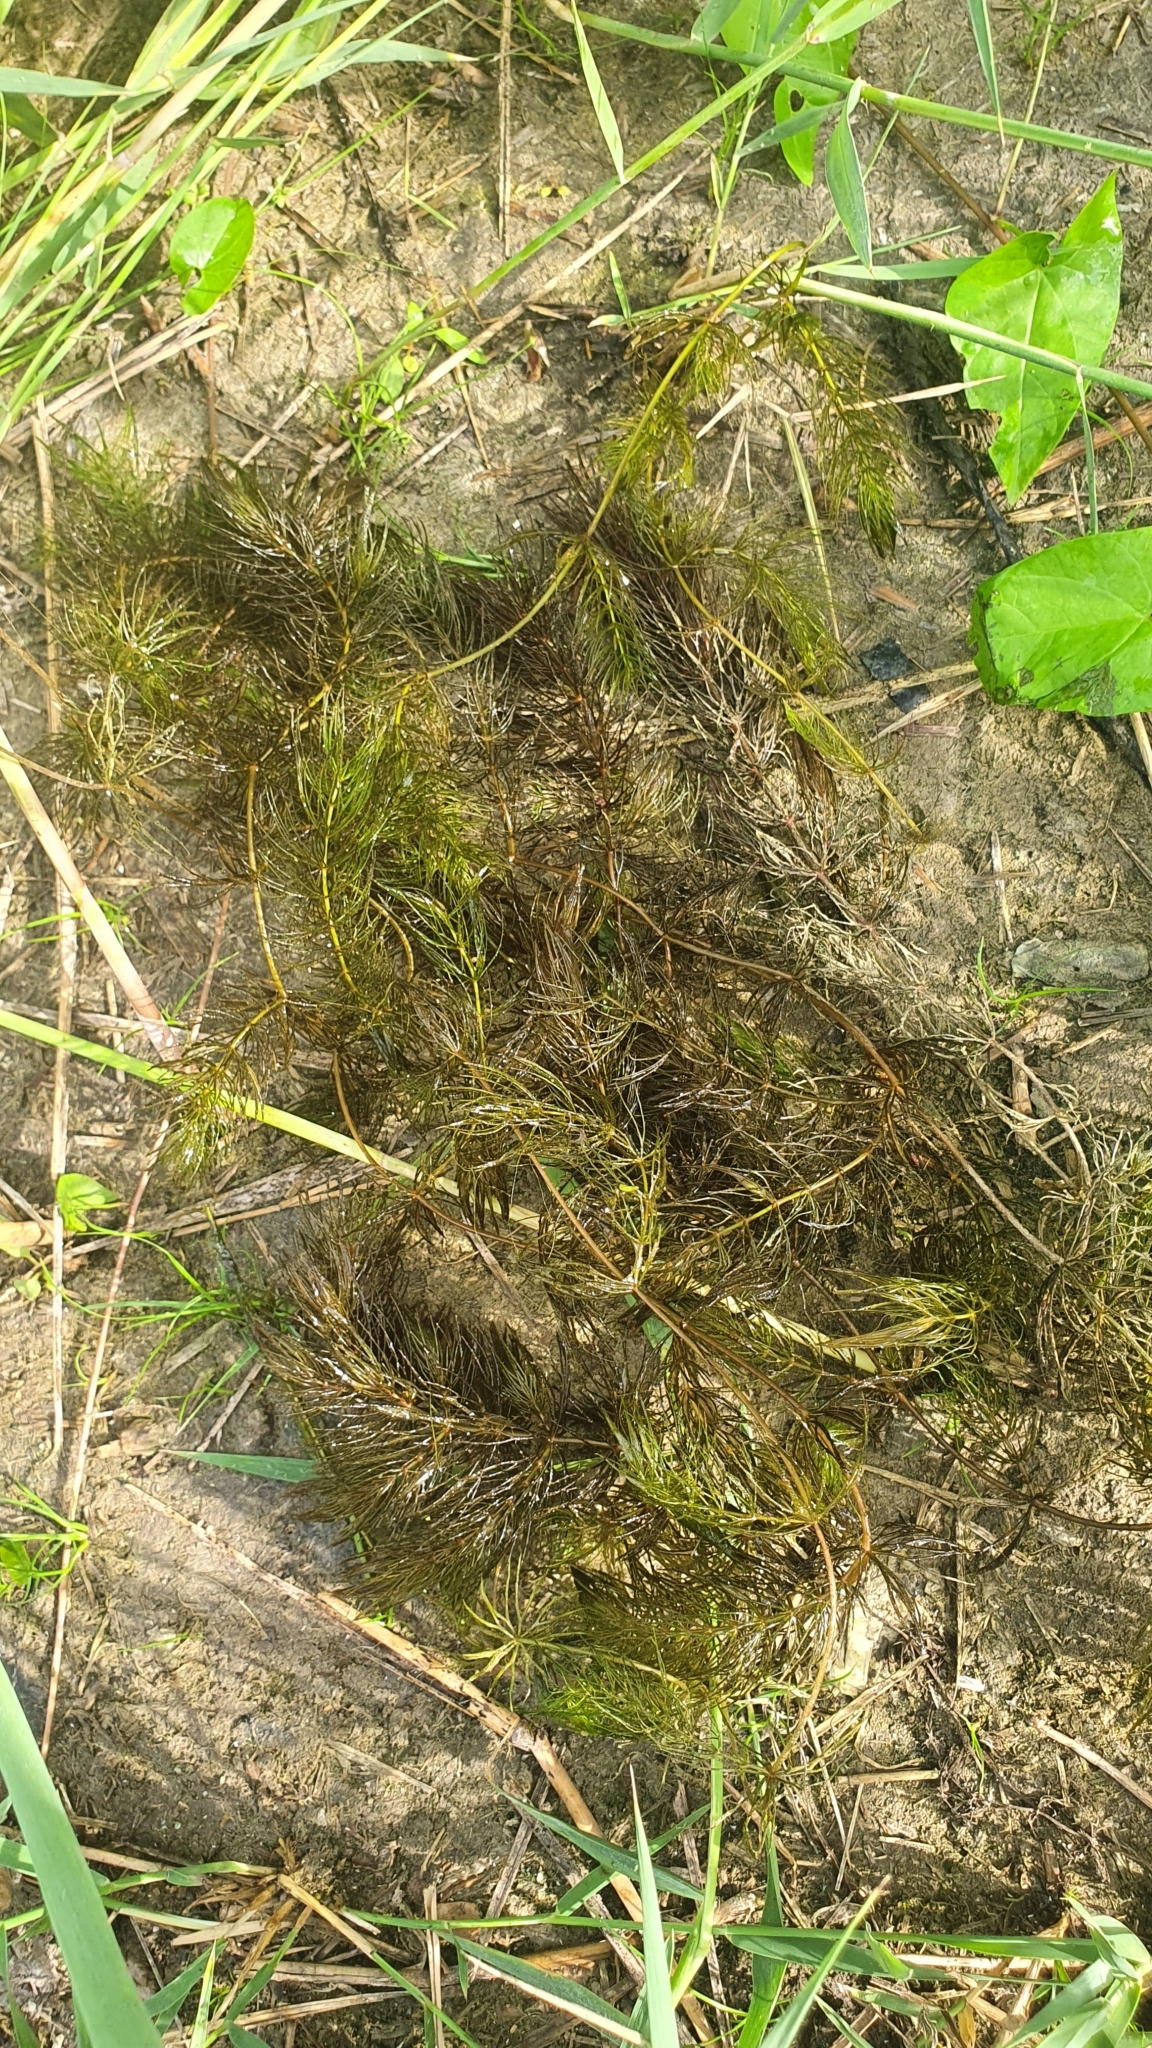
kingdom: Plantae
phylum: Tracheophyta
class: Magnoliopsida
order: Ceratophyllales
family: Ceratophyllaceae
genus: Ceratophyllum
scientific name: Ceratophyllum demersum
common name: Rigid hornwort
